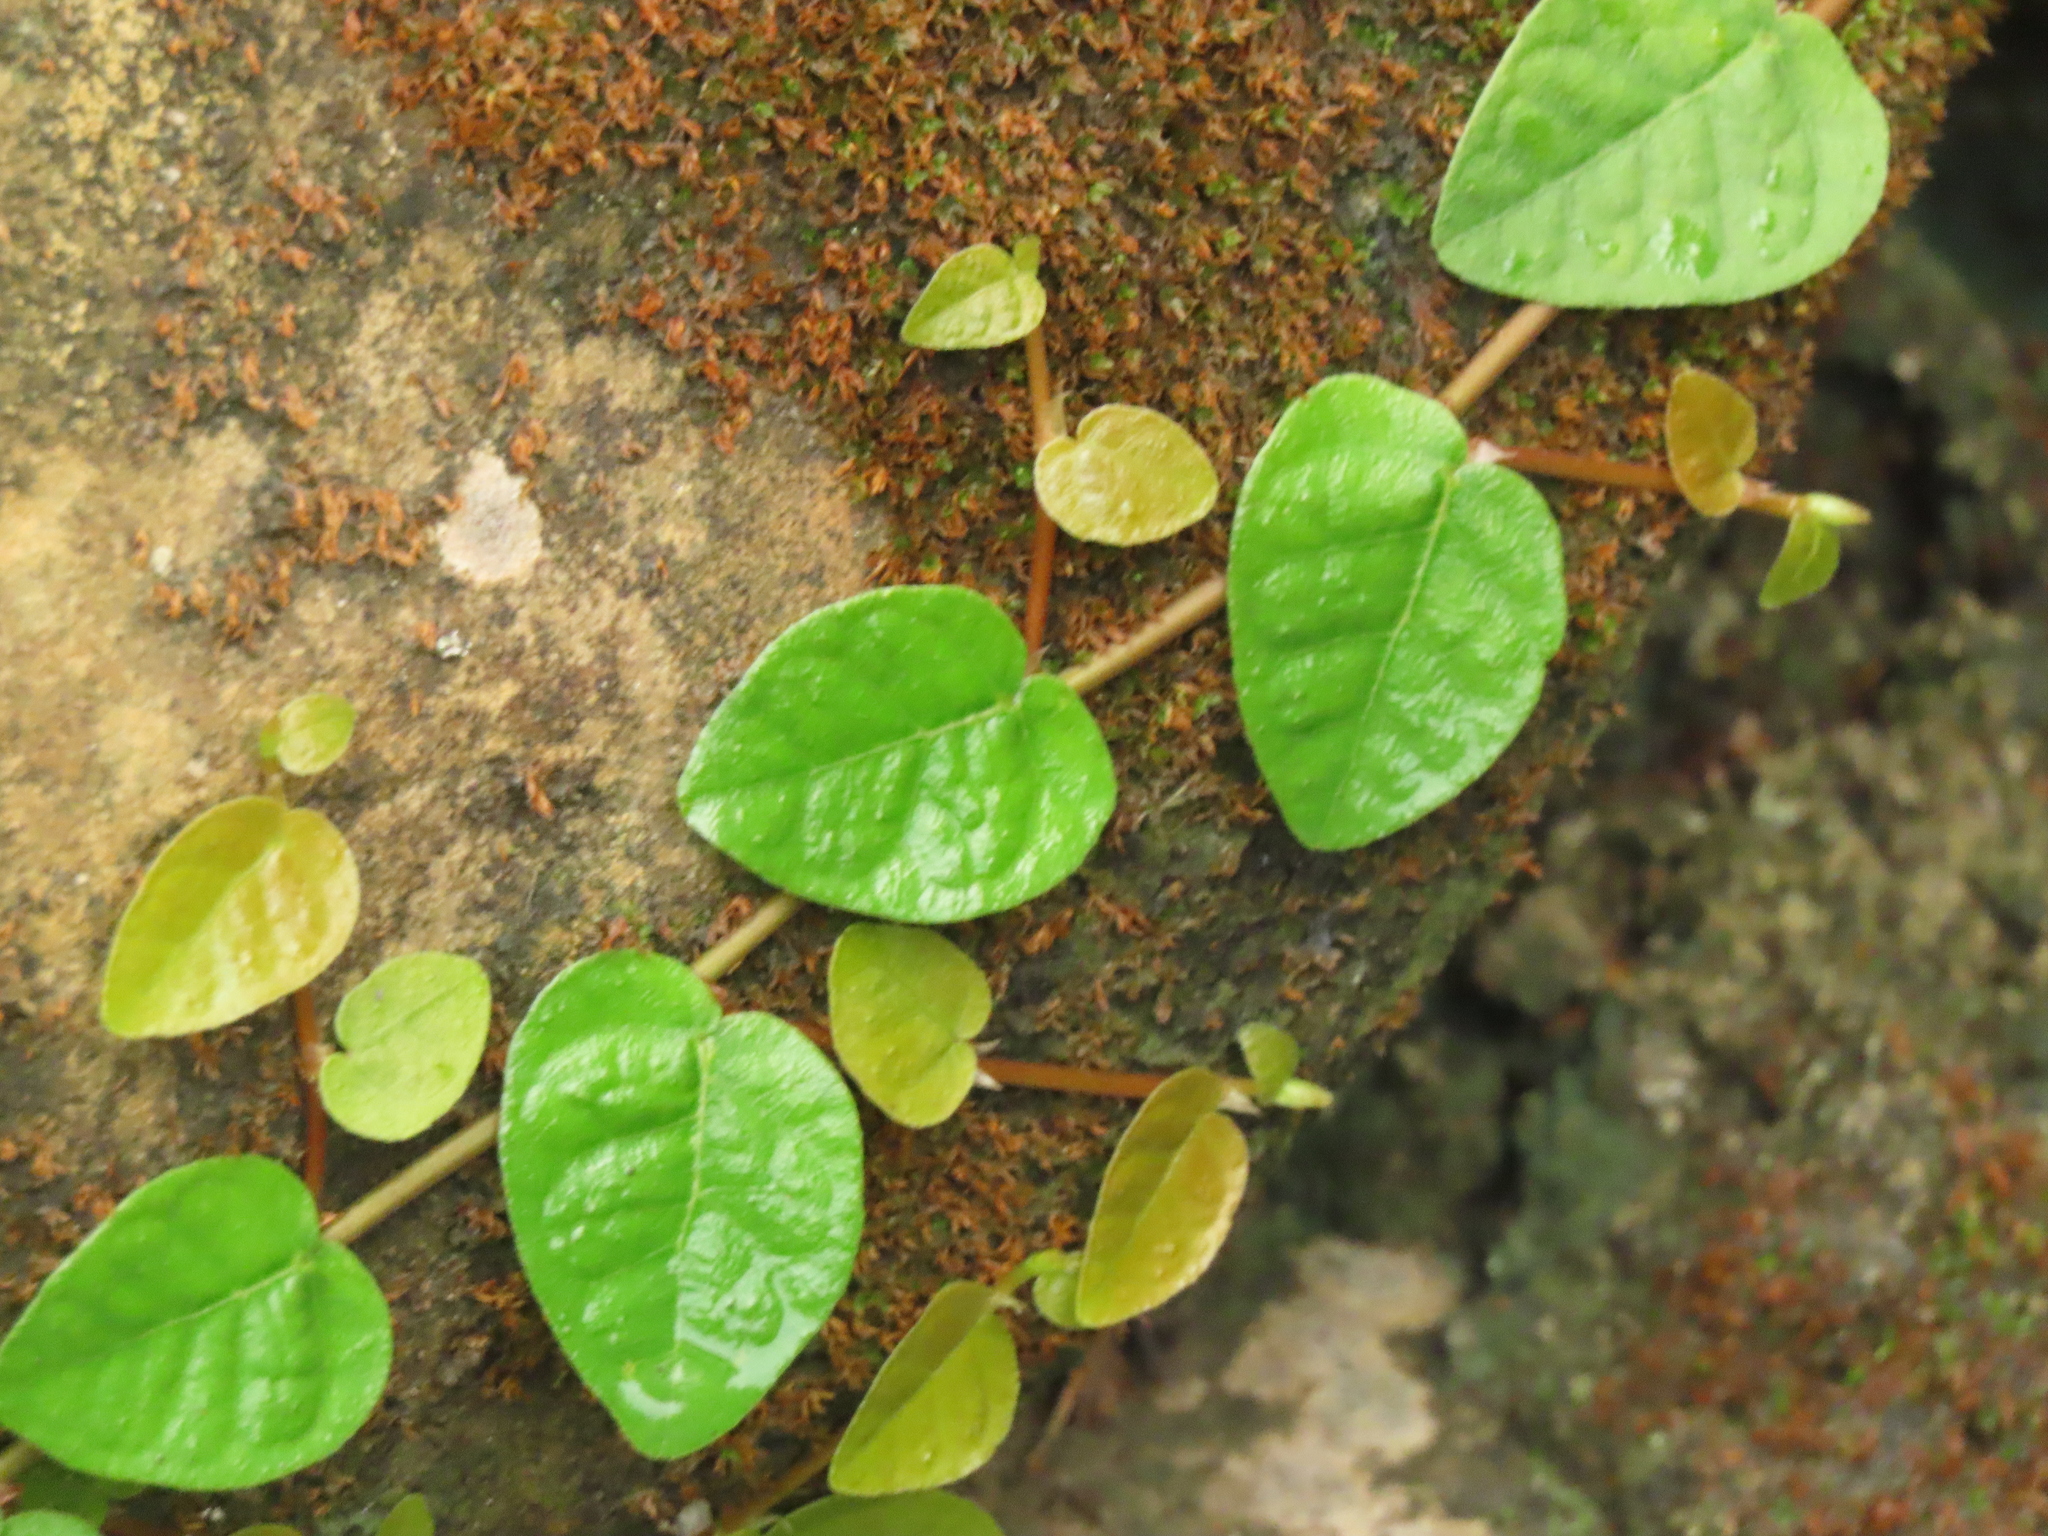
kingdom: Plantae
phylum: Tracheophyta
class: Magnoliopsida
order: Rosales
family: Moraceae
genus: Ficus
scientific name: Ficus pumila
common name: Climbingfig
